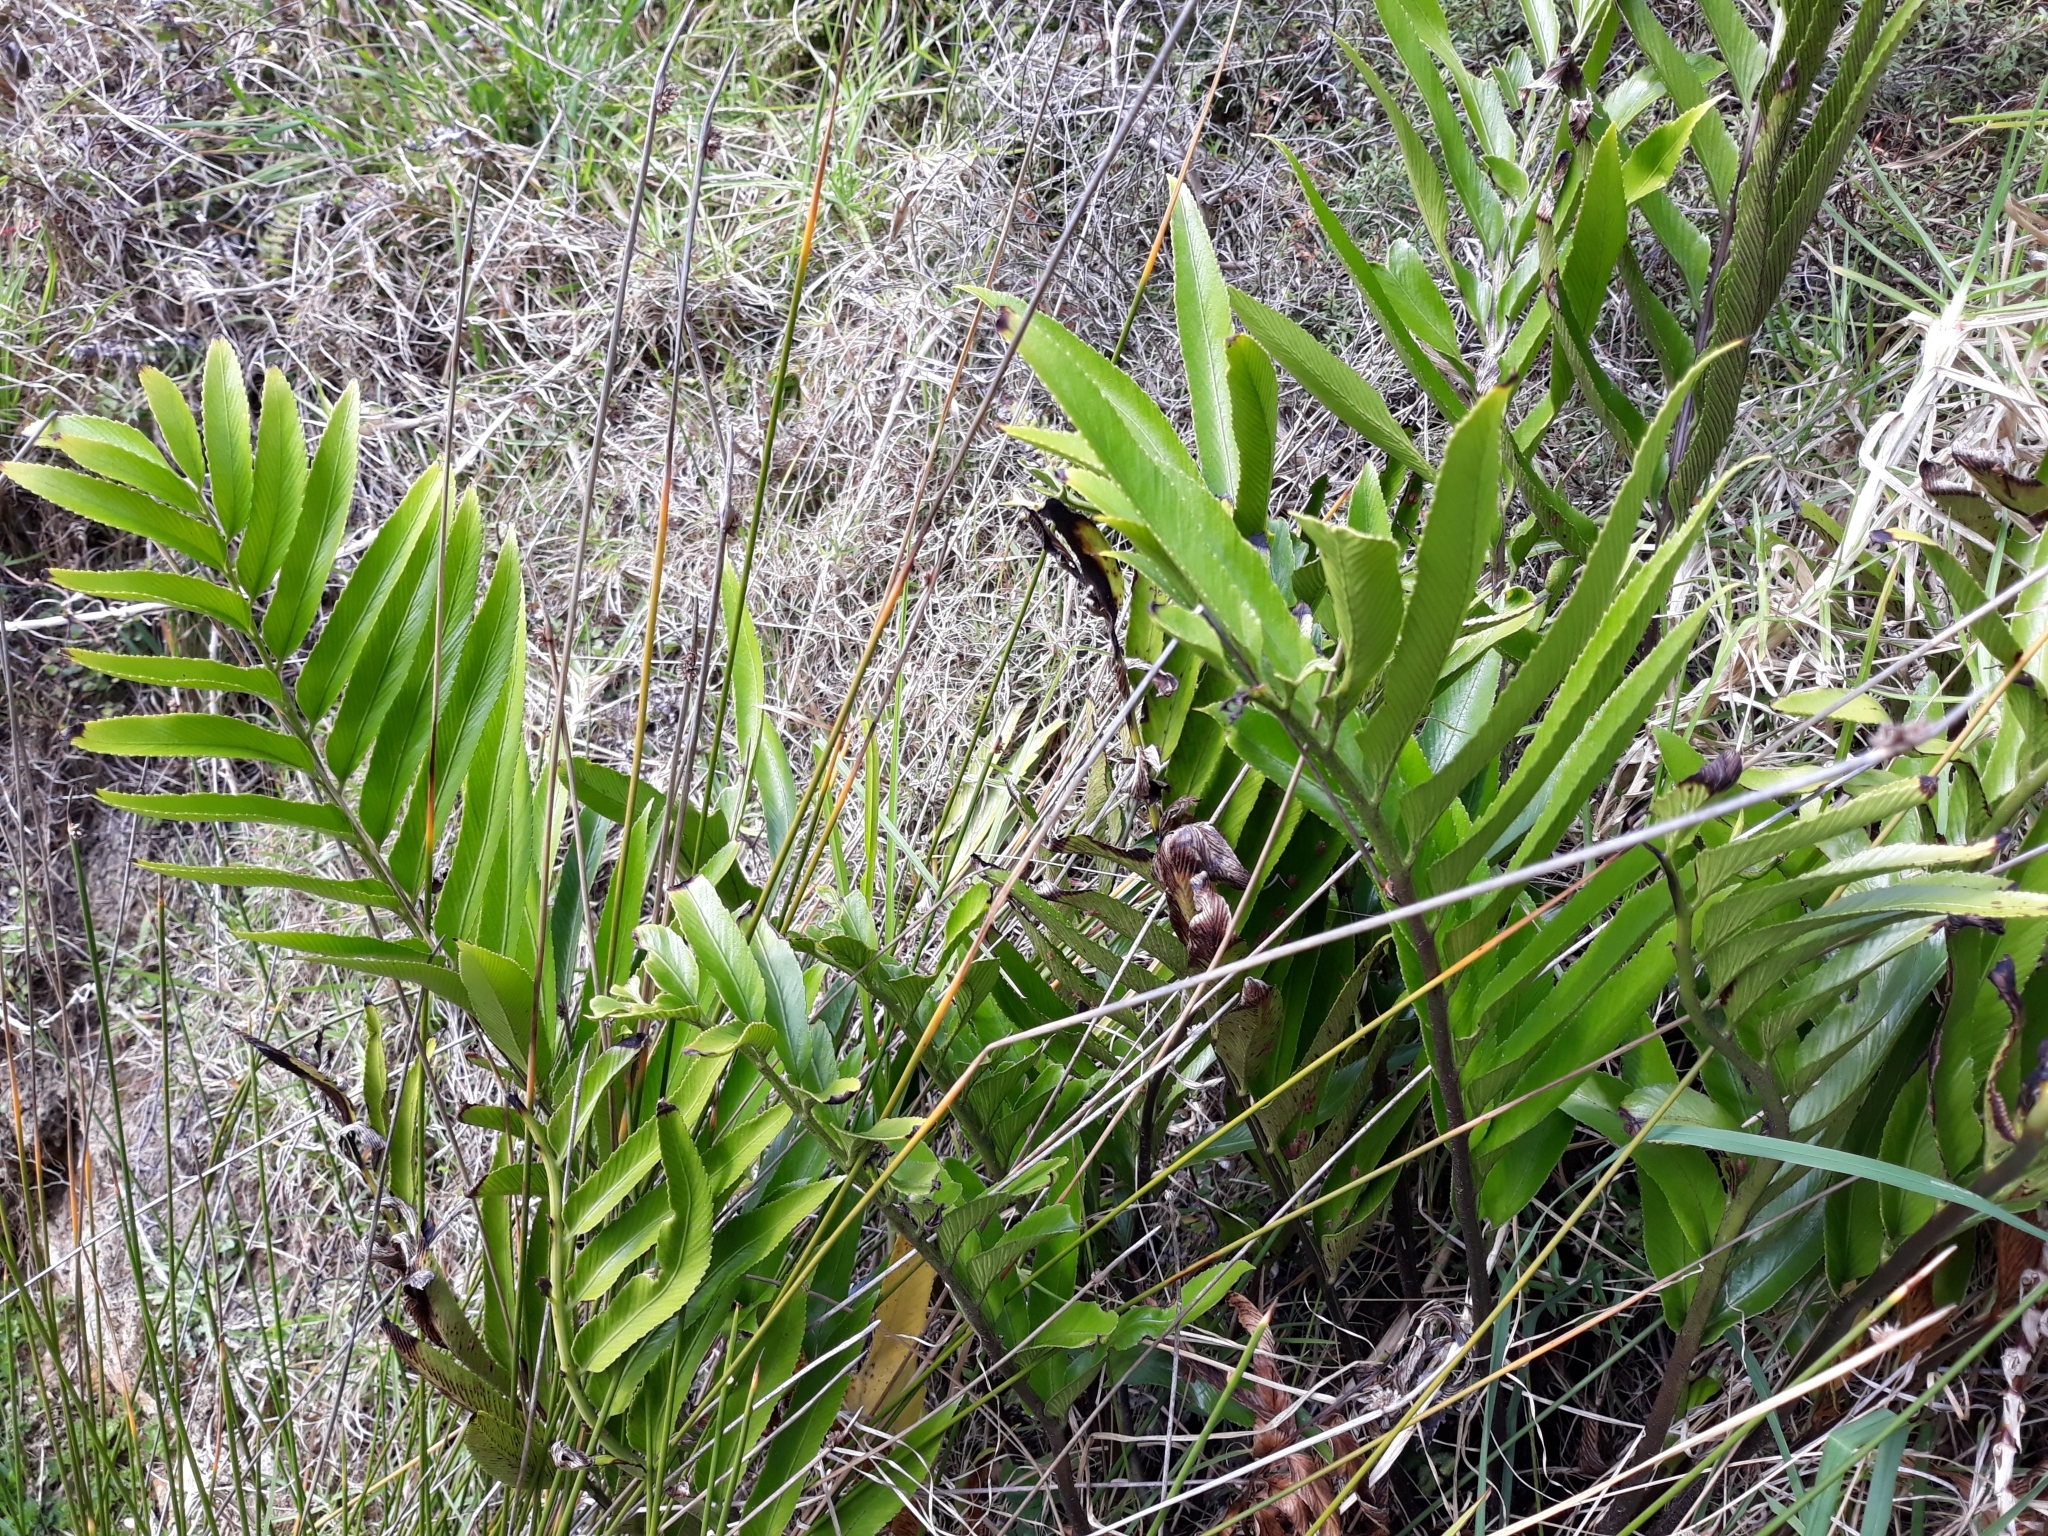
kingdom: Plantae
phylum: Tracheophyta
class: Polypodiopsida
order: Polypodiales
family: Aspleniaceae
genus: Asplenium
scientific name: Asplenium oblongifolium
